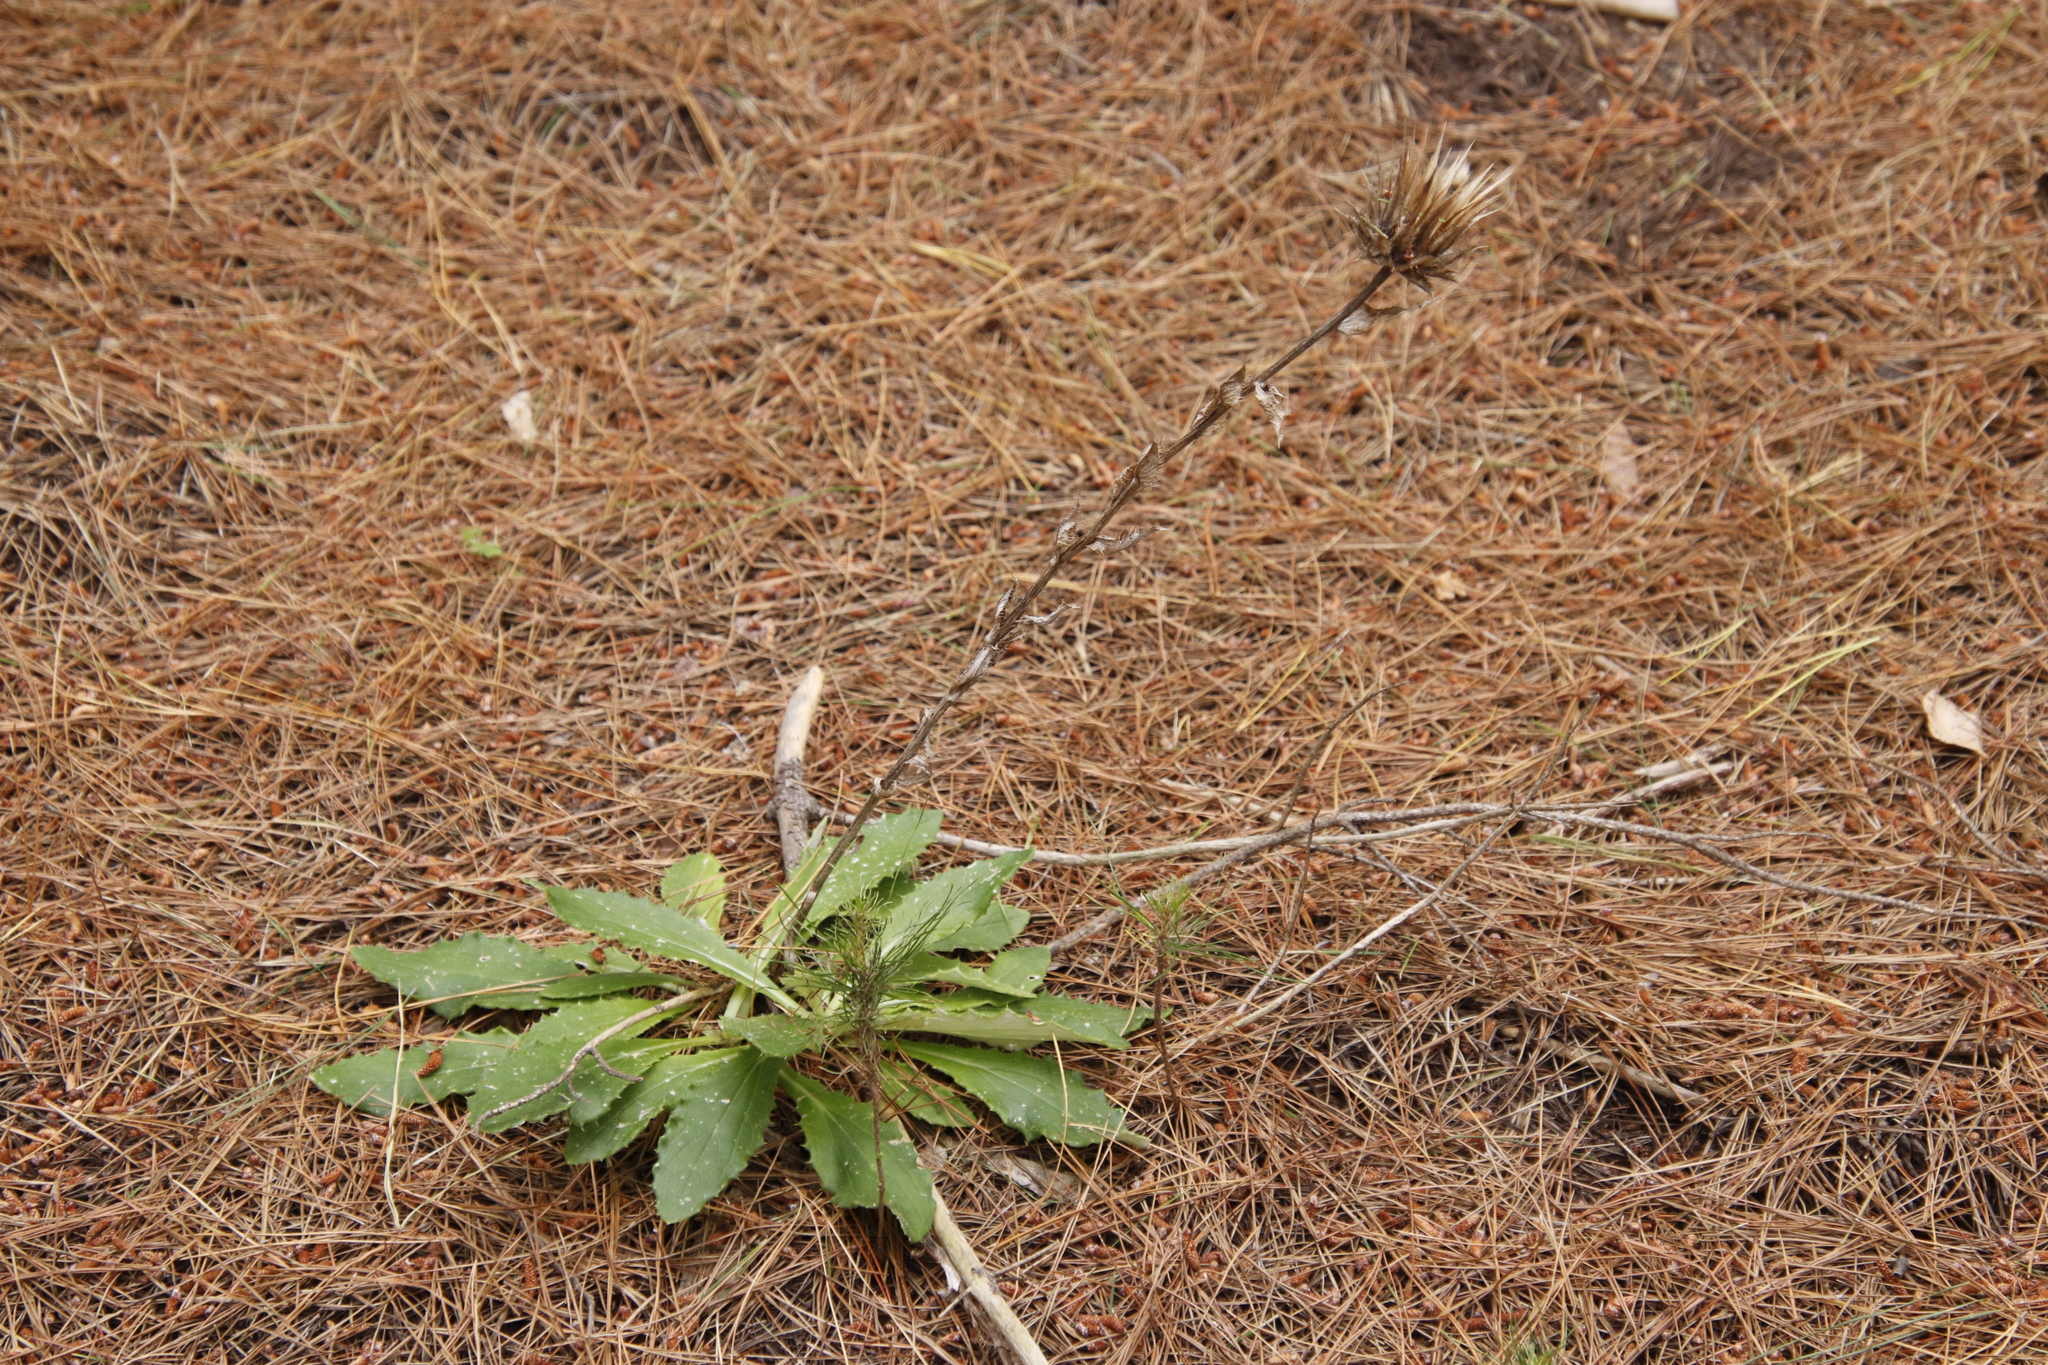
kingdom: Plantae
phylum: Tracheophyta
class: Magnoliopsida
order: Asterales
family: Asteraceae
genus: Berkheya
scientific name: Berkheya armata
